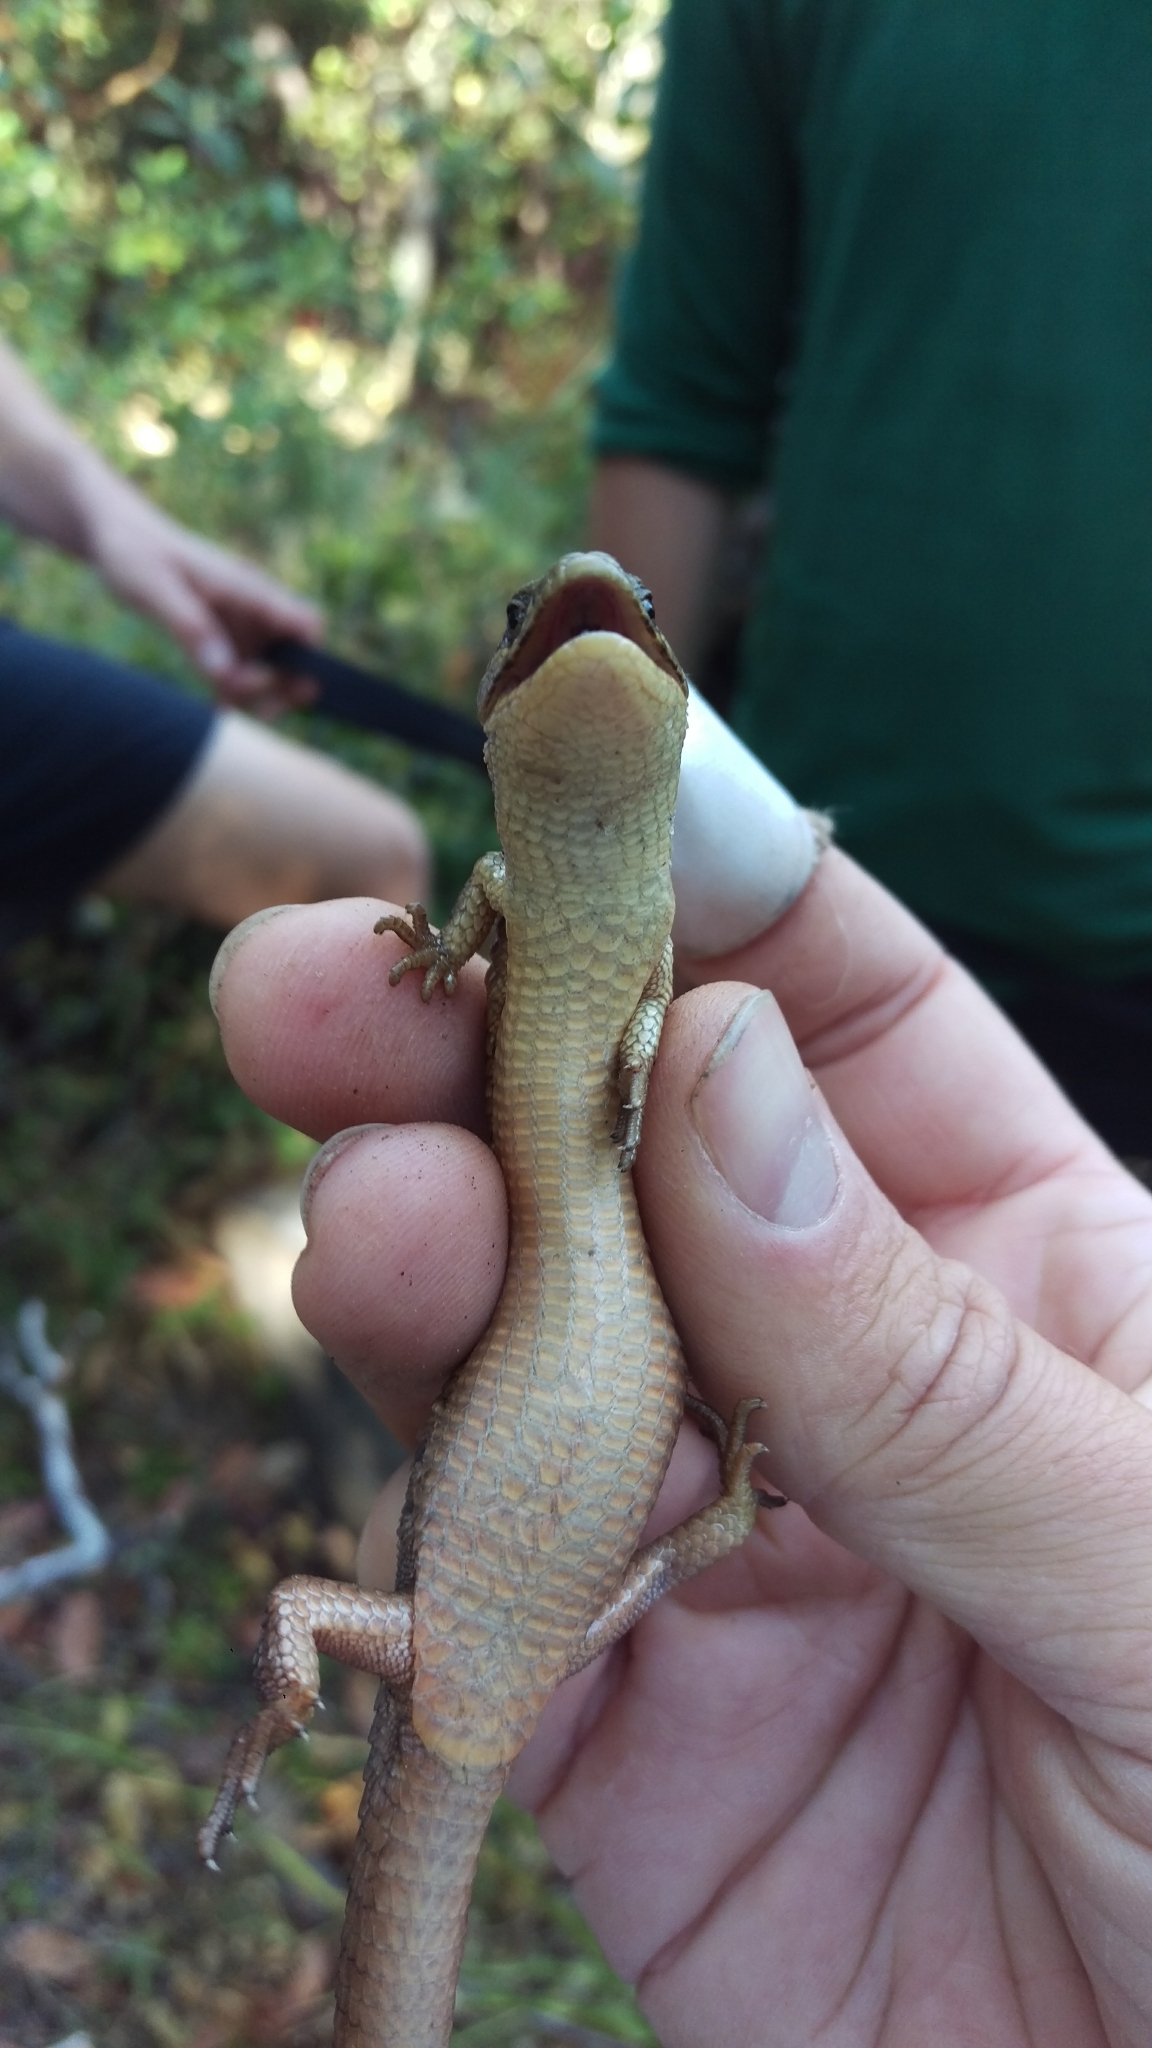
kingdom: Animalia
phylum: Chordata
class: Squamata
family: Anguidae
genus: Elgaria
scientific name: Elgaria coerulea
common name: Northern alligator lizard
